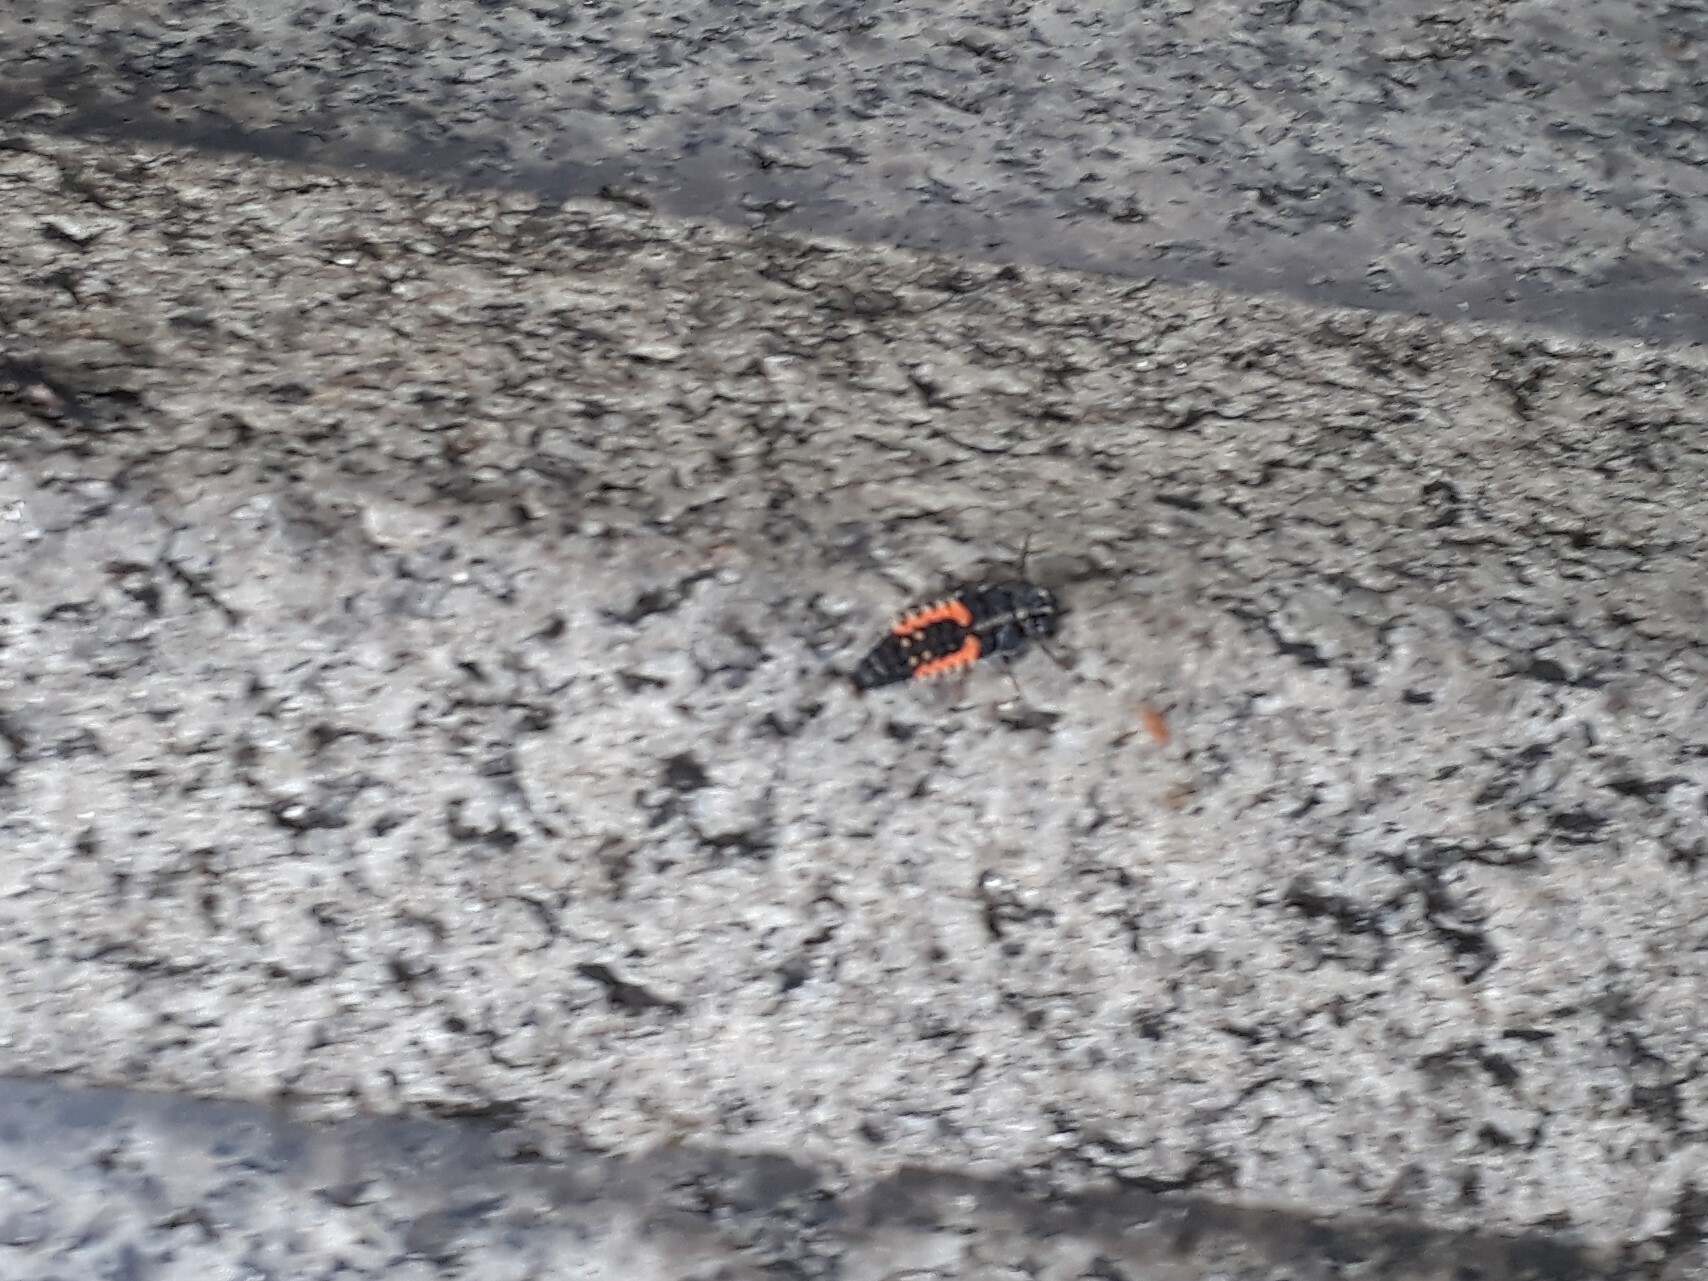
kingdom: Animalia
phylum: Arthropoda
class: Insecta
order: Coleoptera
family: Coccinellidae
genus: Harmonia
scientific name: Harmonia axyridis
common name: Harlequin ladybird
